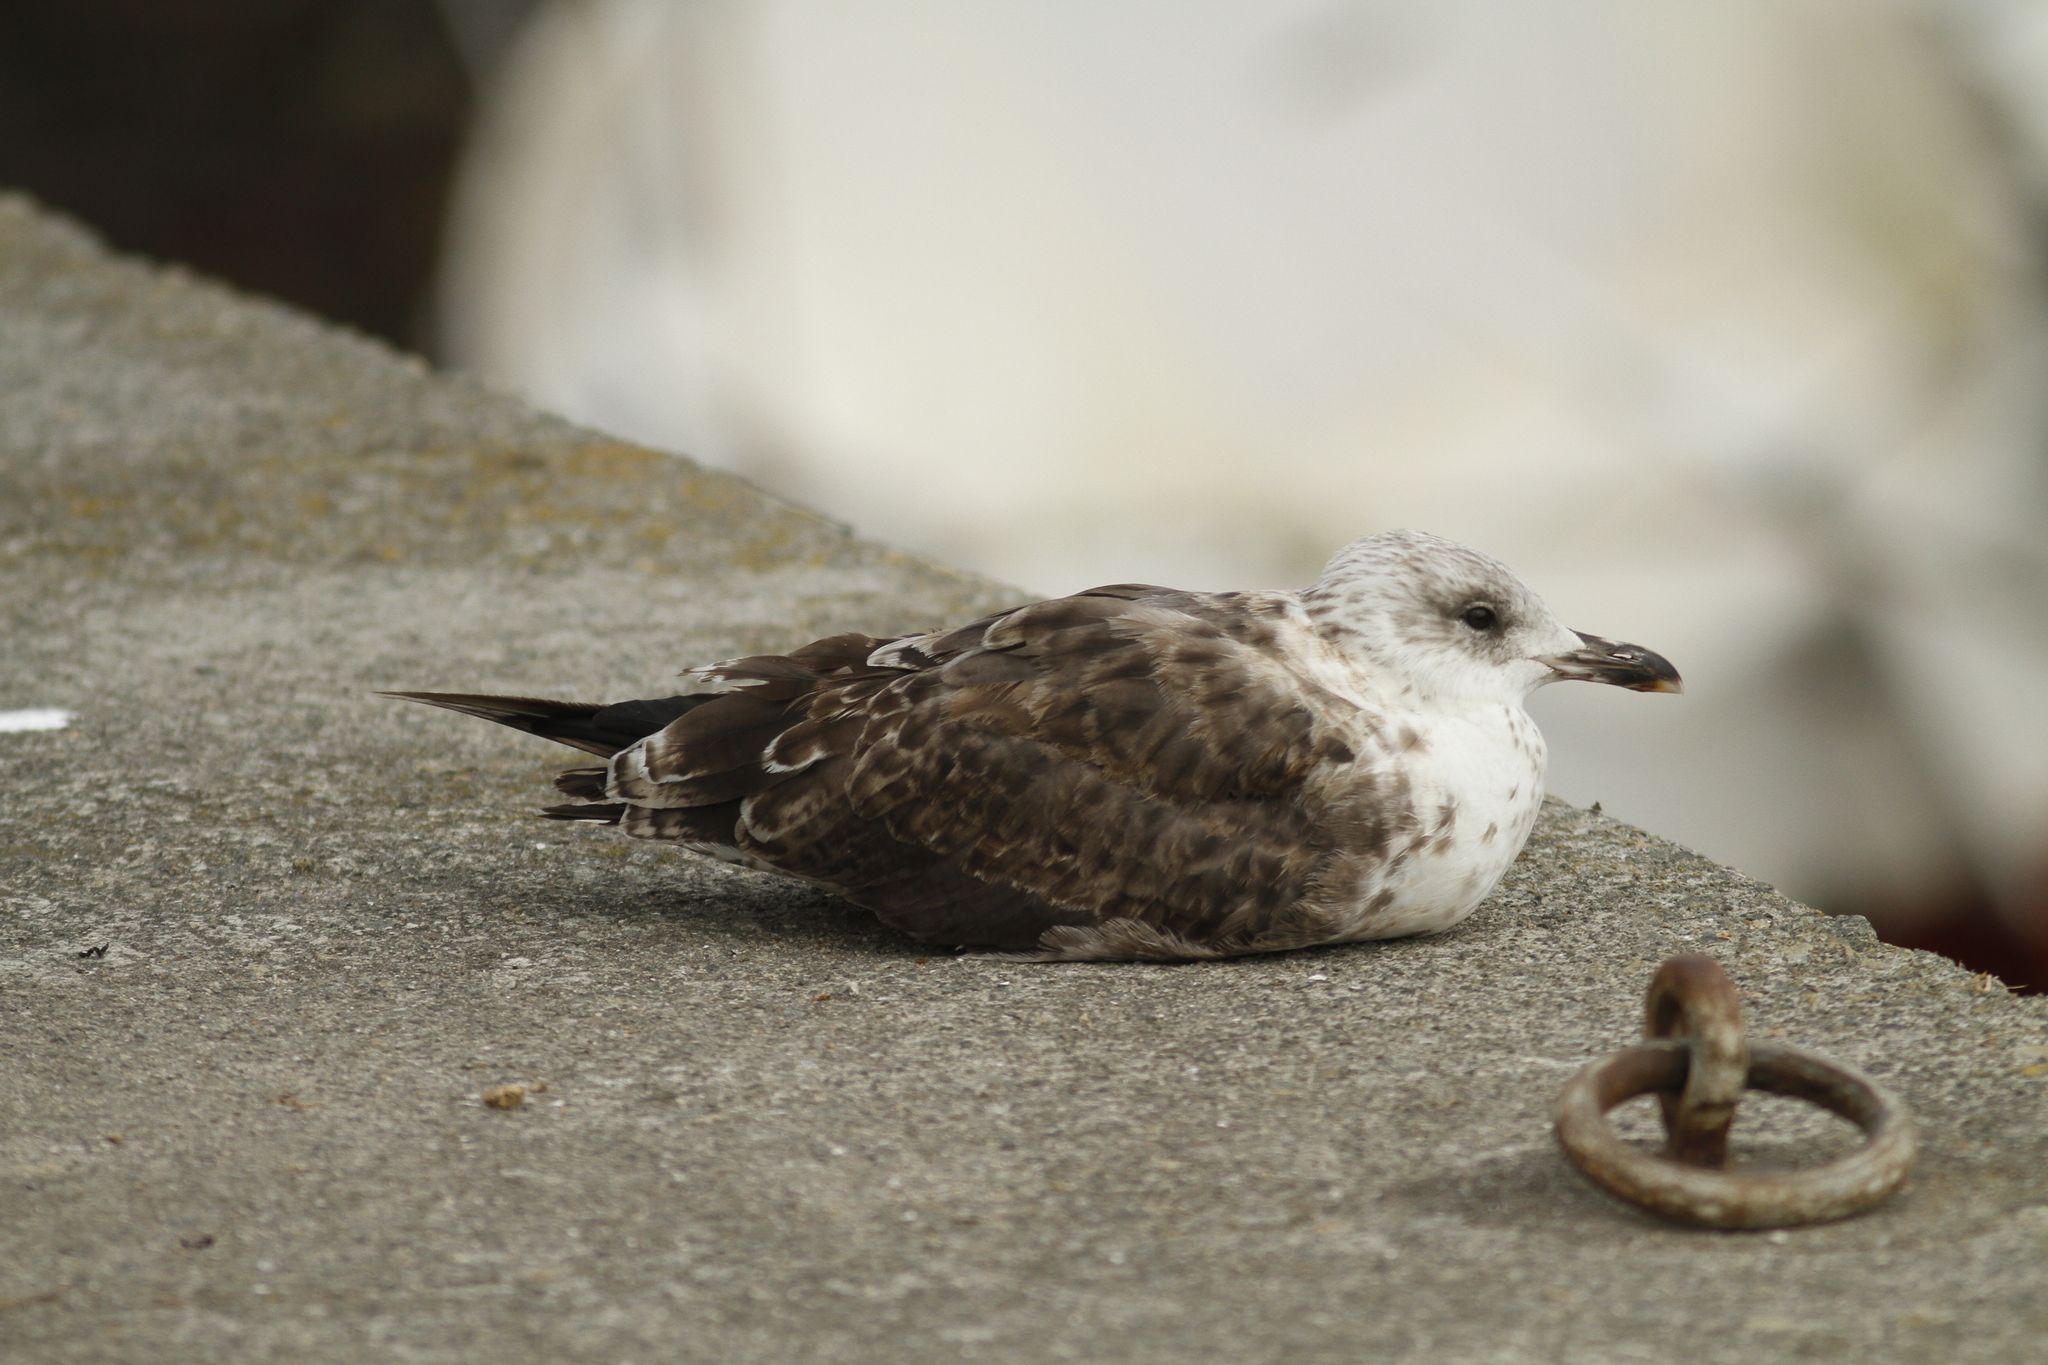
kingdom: Animalia
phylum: Chordata
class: Aves
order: Charadriiformes
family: Laridae
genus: Larus
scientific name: Larus fuscus
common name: Lesser black-backed gull
